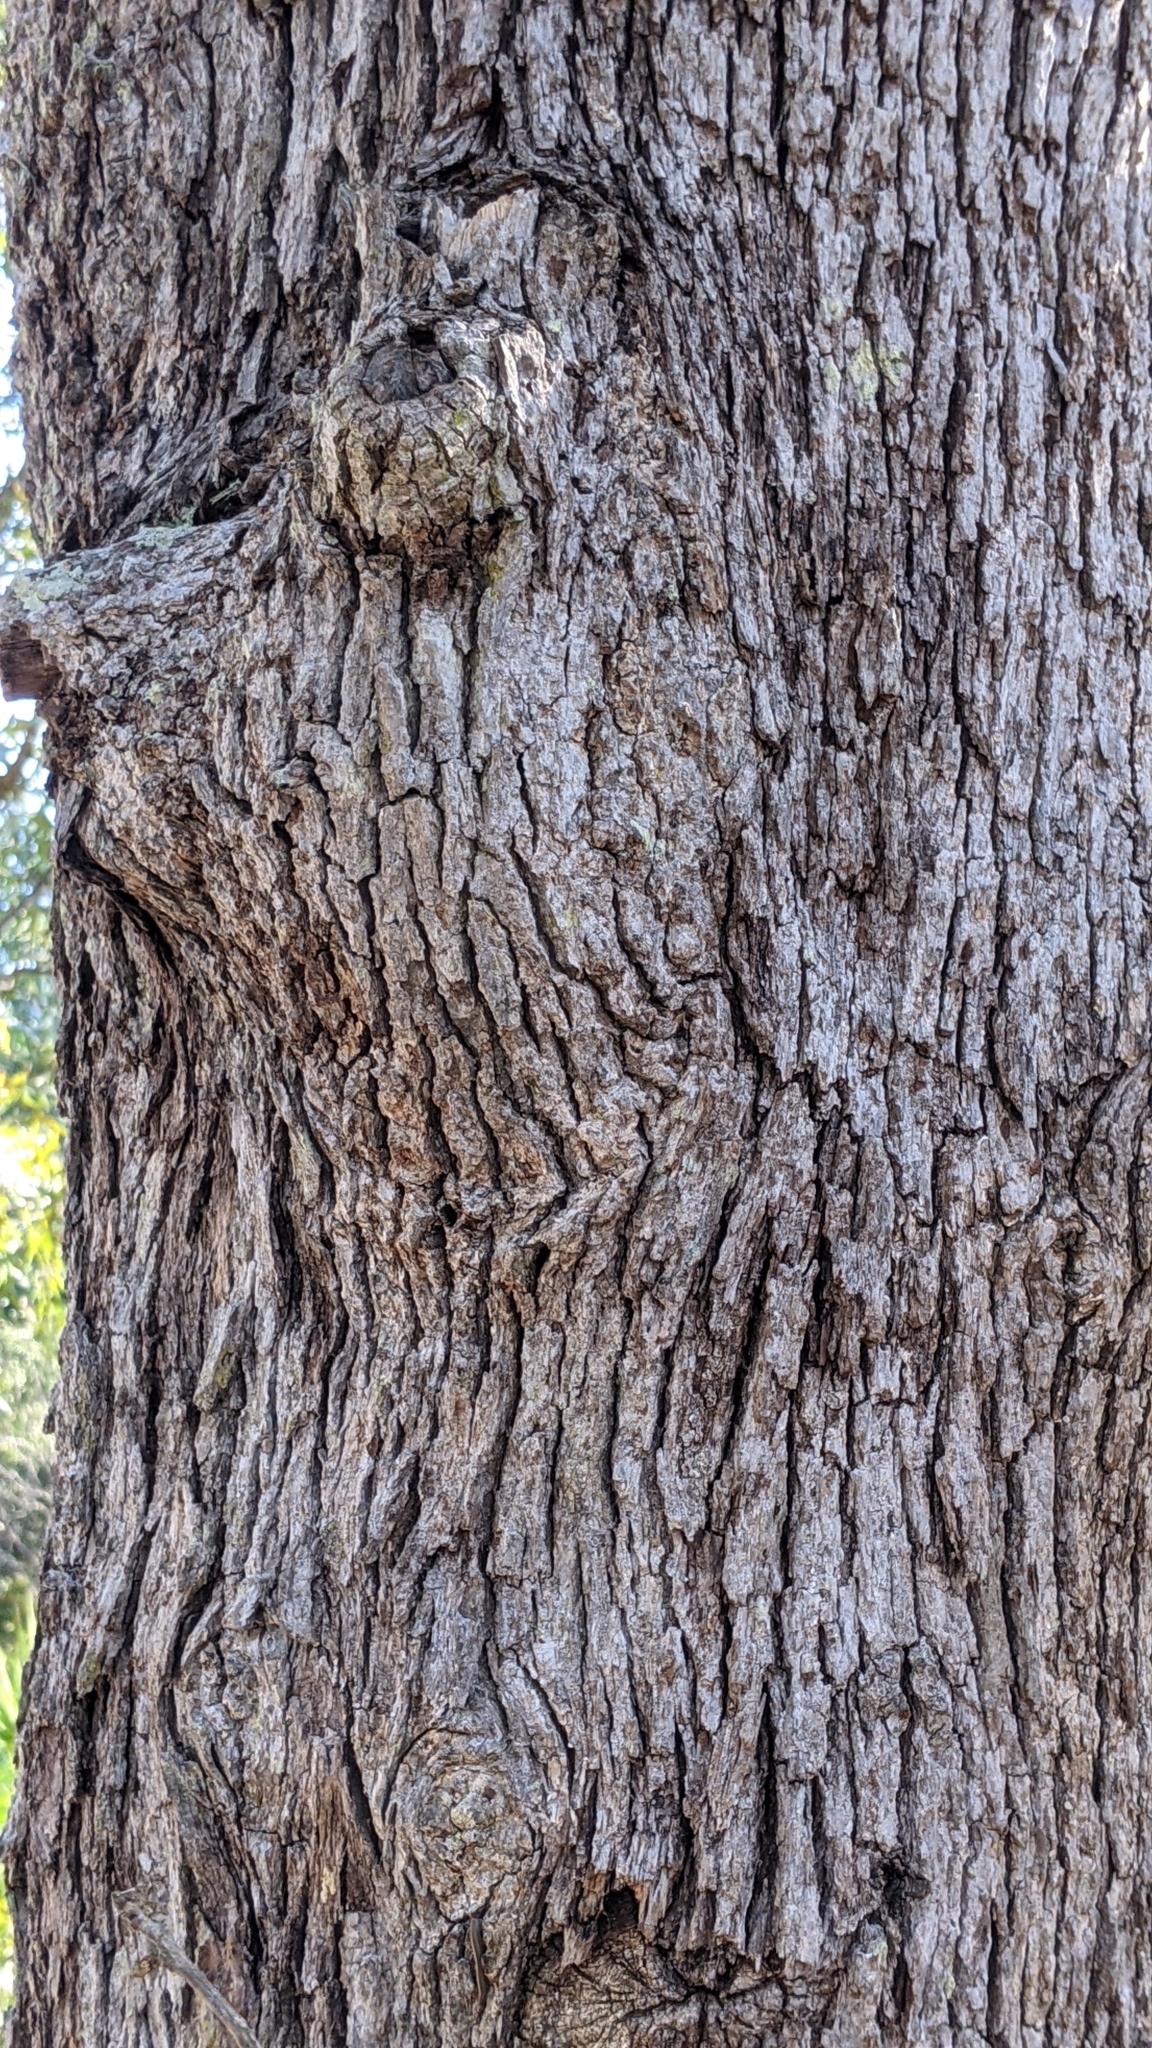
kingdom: Plantae
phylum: Tracheophyta
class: Magnoliopsida
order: Fagales
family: Fagaceae
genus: Quercus
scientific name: Quercus alba
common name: White oak
